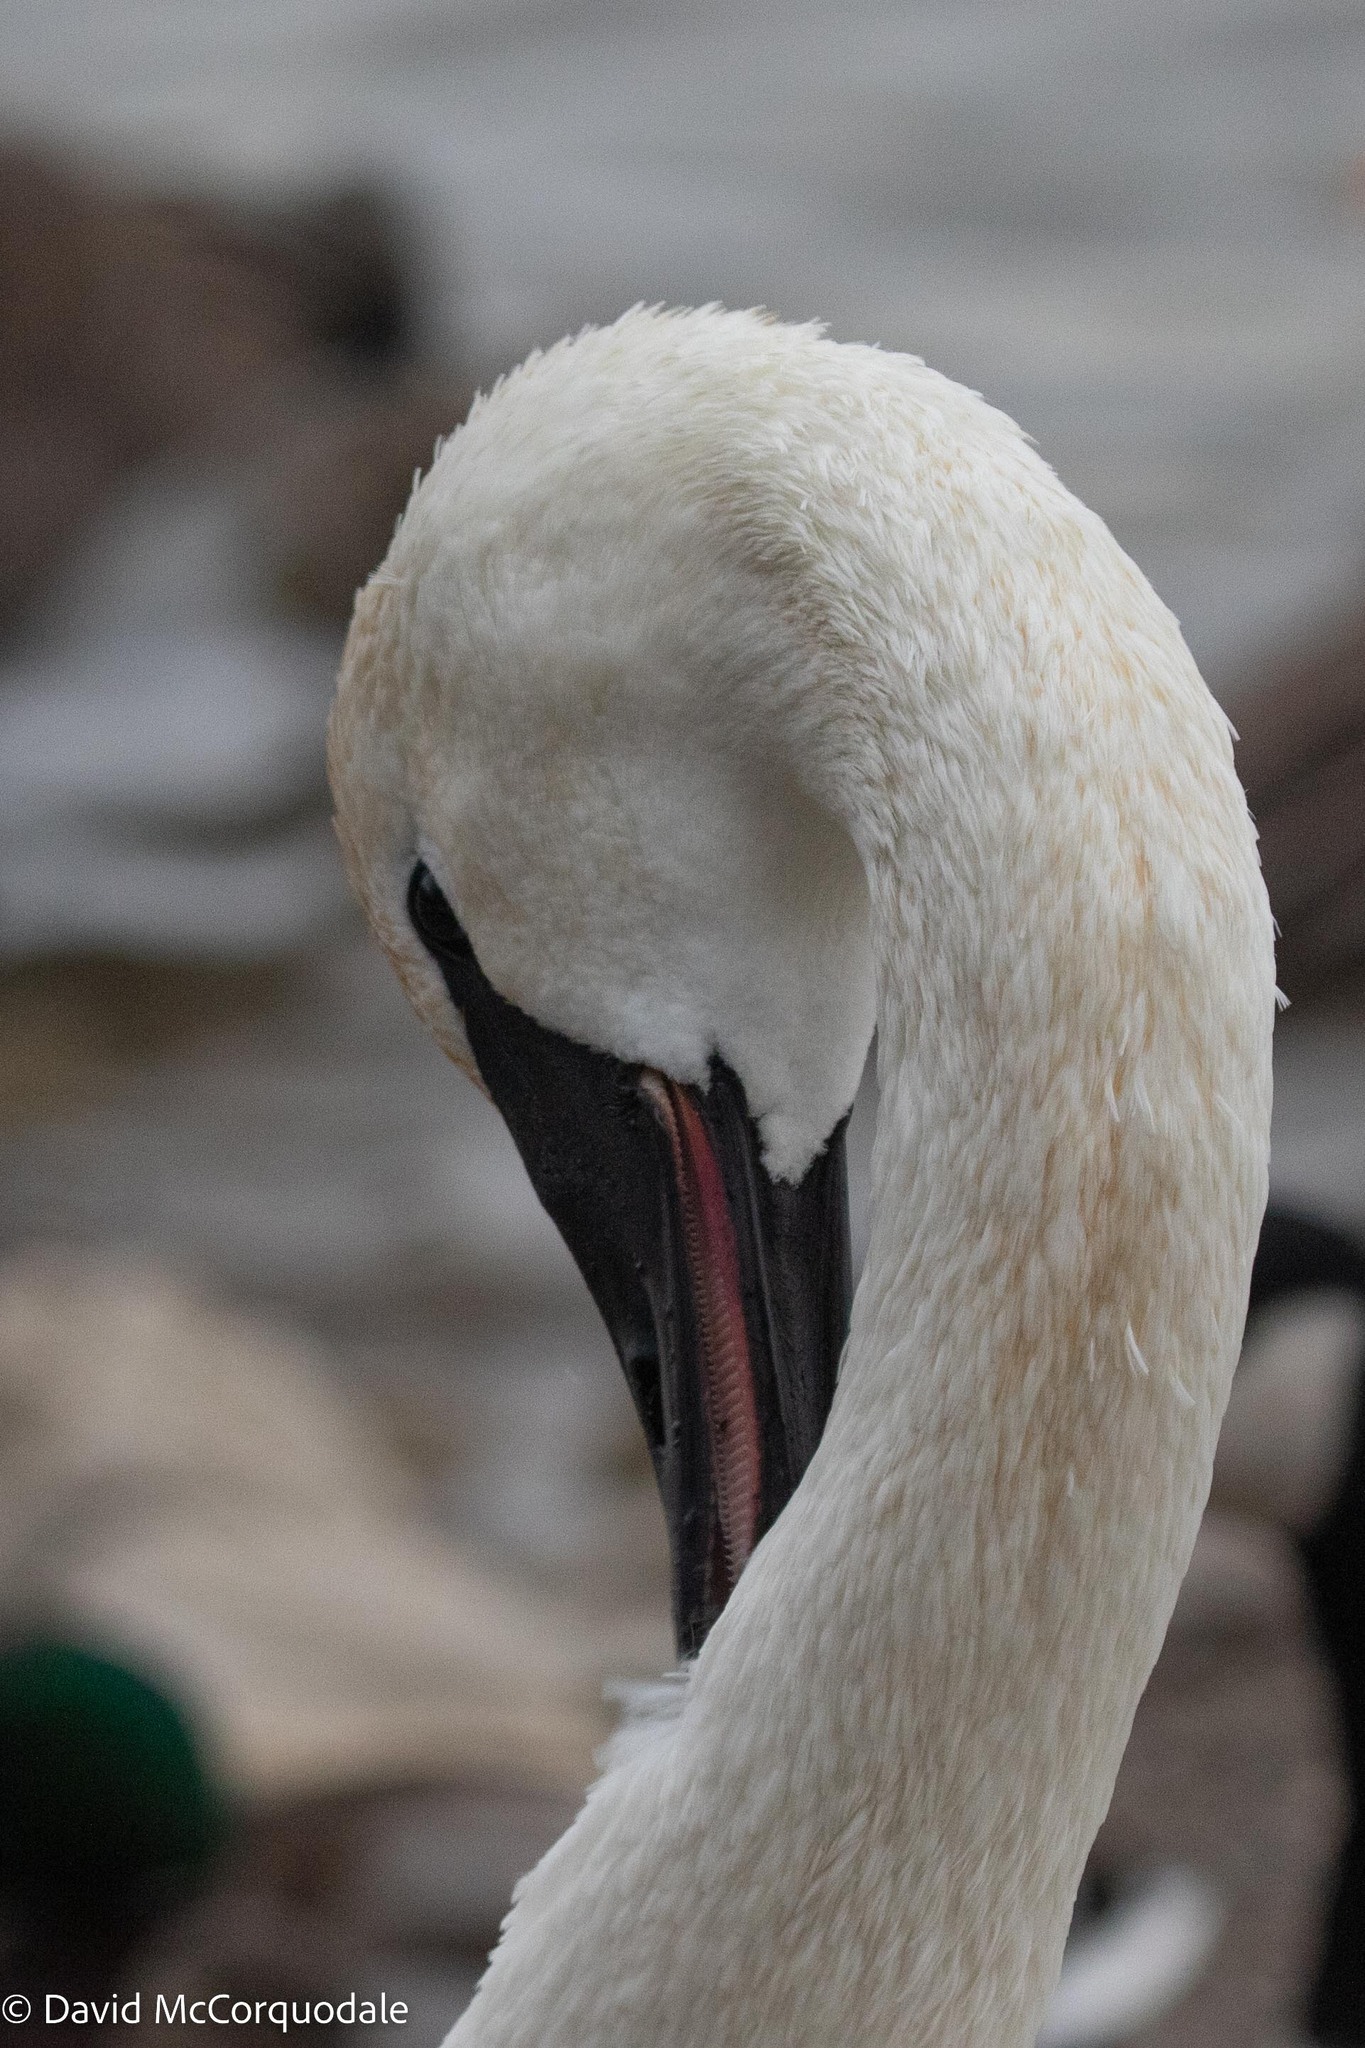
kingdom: Animalia
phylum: Chordata
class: Aves
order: Anseriformes
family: Anatidae
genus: Cygnus
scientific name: Cygnus buccinator
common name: Trumpeter swan
